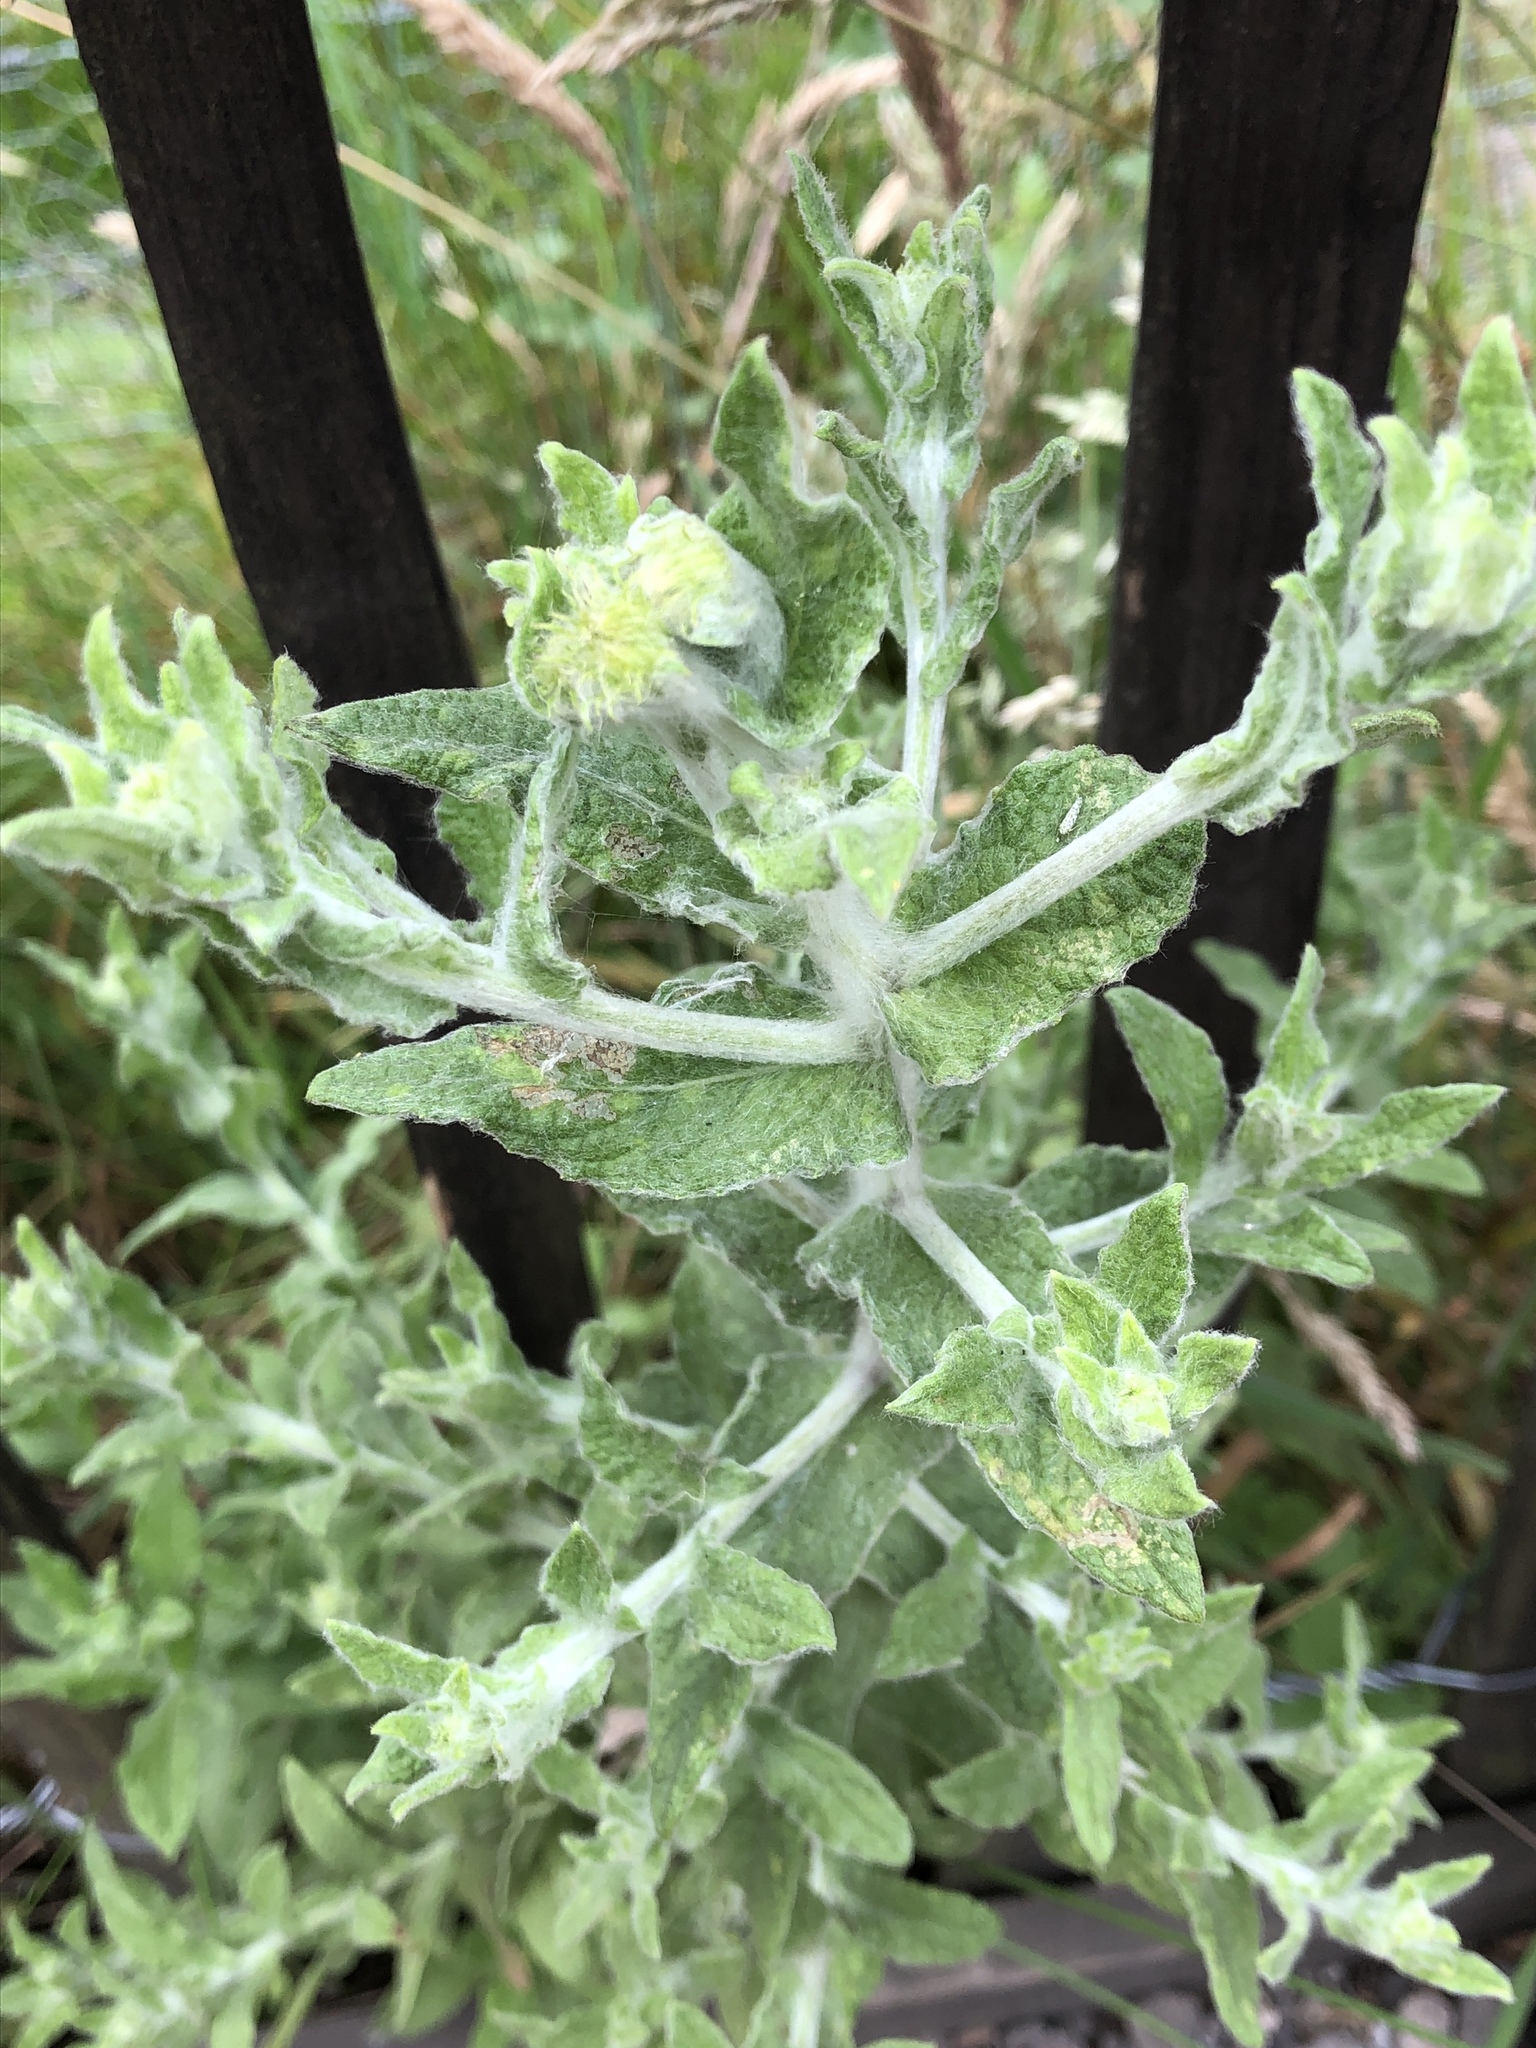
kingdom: Plantae
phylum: Tracheophyta
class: Magnoliopsida
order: Asterales
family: Asteraceae
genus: Pulicaria
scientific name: Pulicaria dysenterica
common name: Common fleabane
